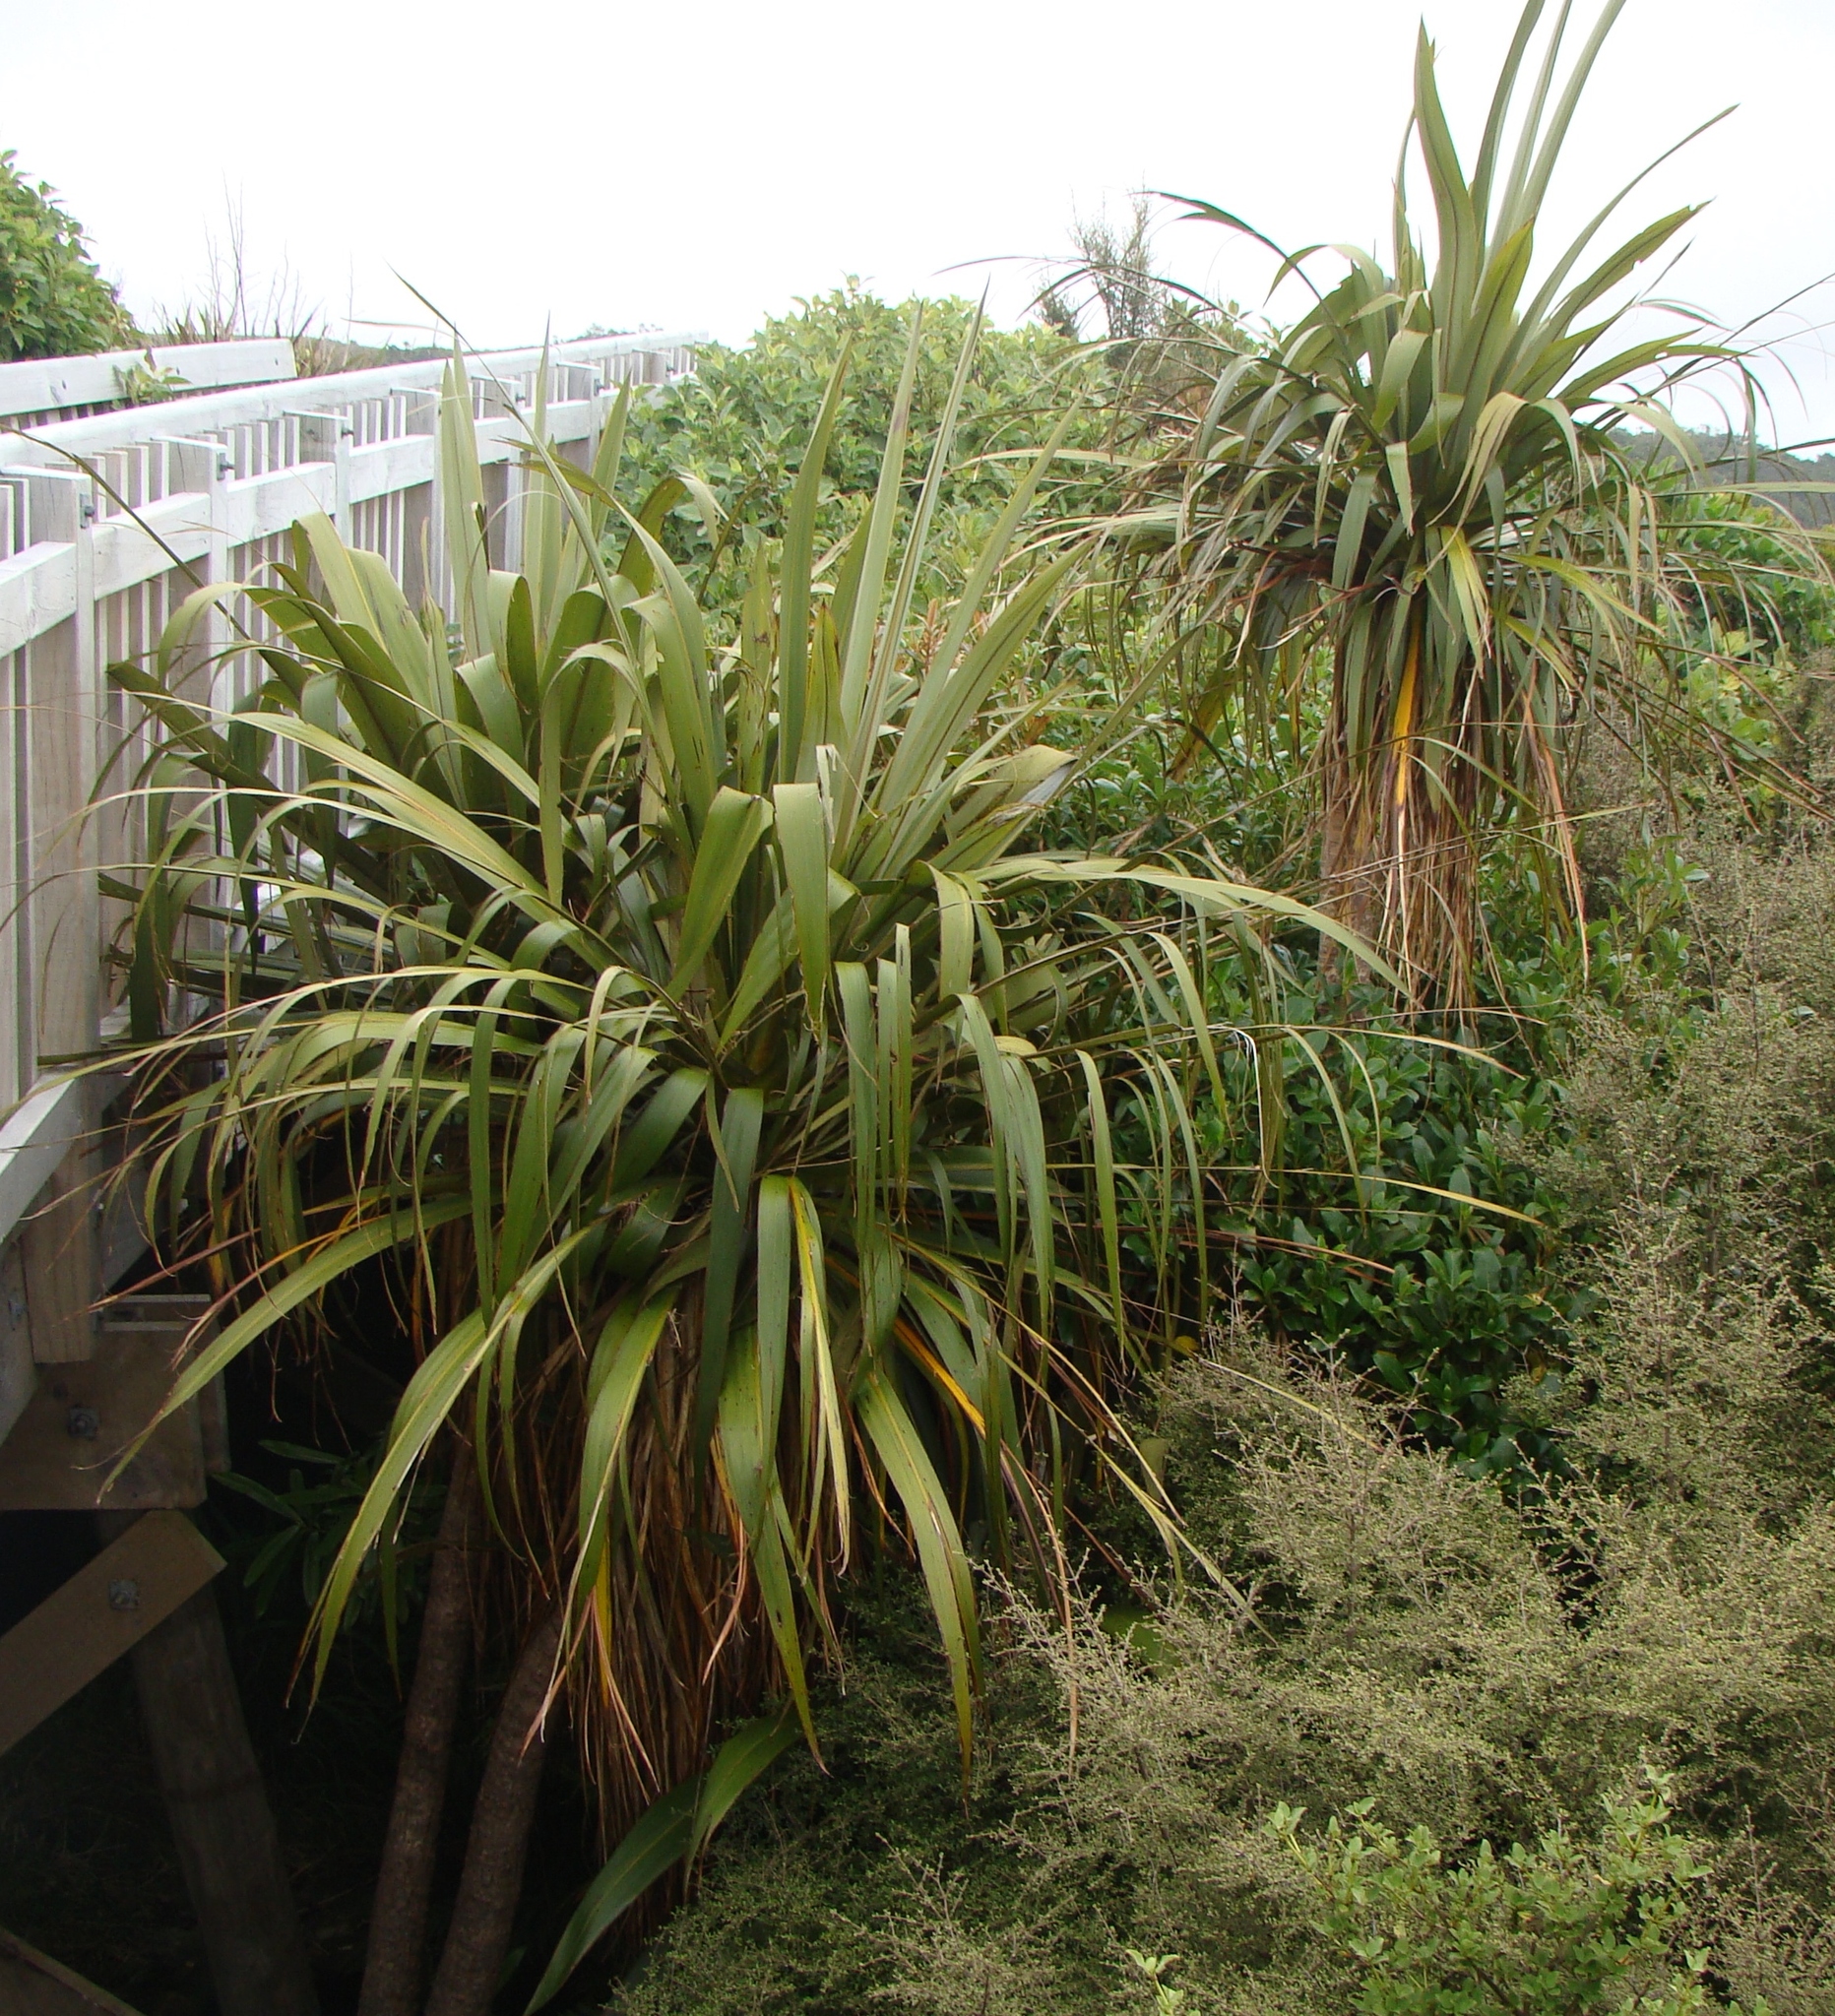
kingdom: Plantae
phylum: Tracheophyta
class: Liliopsida
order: Asparagales
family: Asparagaceae
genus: Cordyline
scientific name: Cordyline banksii
